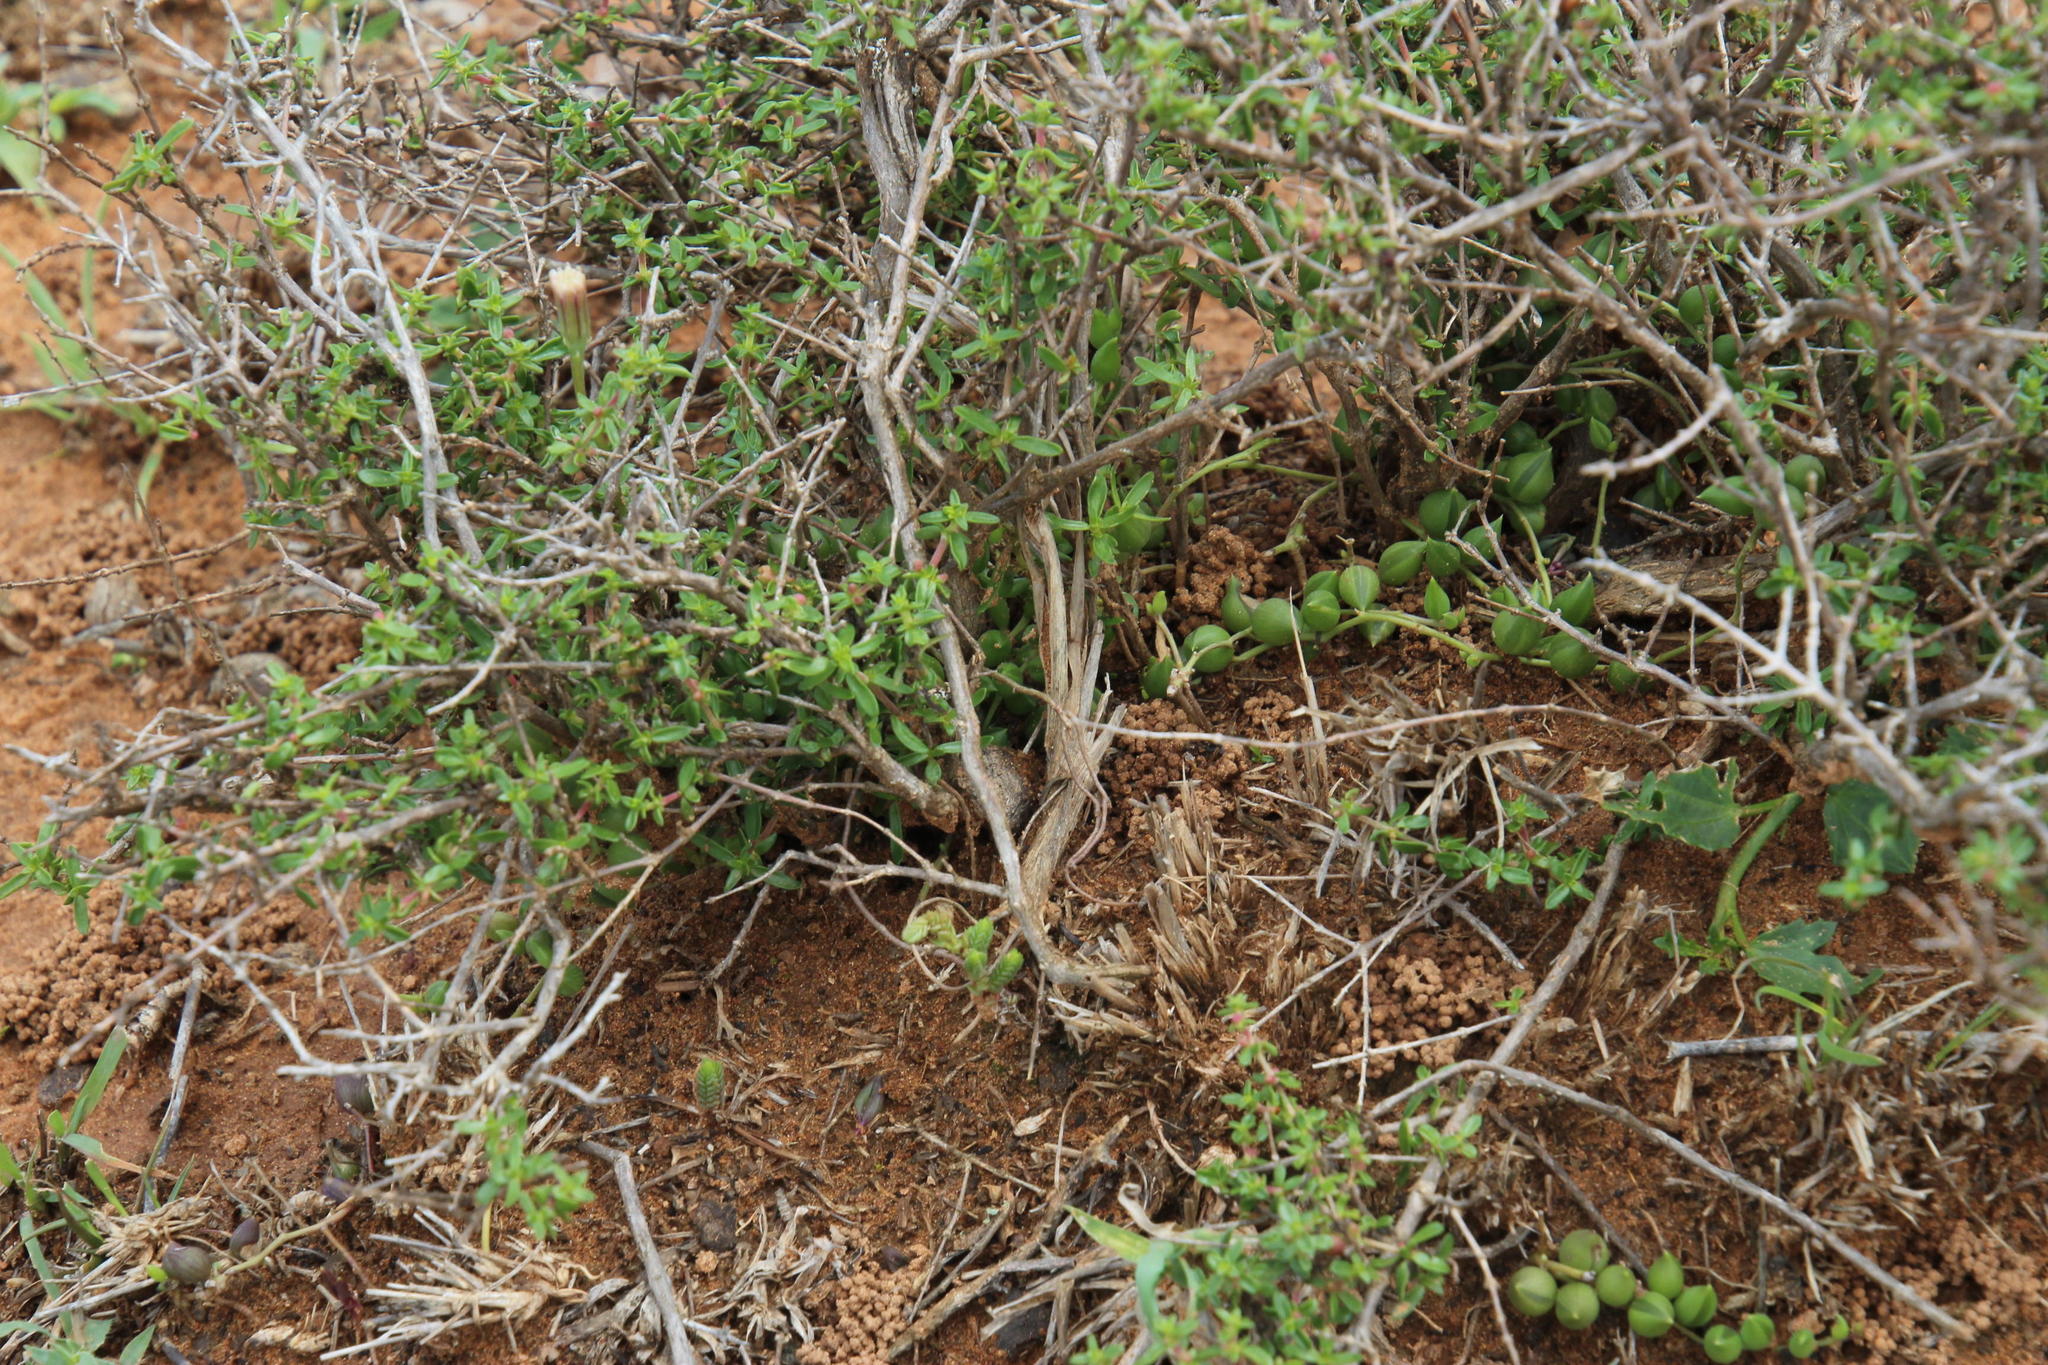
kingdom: Plantae
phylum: Tracheophyta
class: Magnoliopsida
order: Asterales
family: Asteraceae
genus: Curio
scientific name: Curio radicans
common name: Creeping-berry
